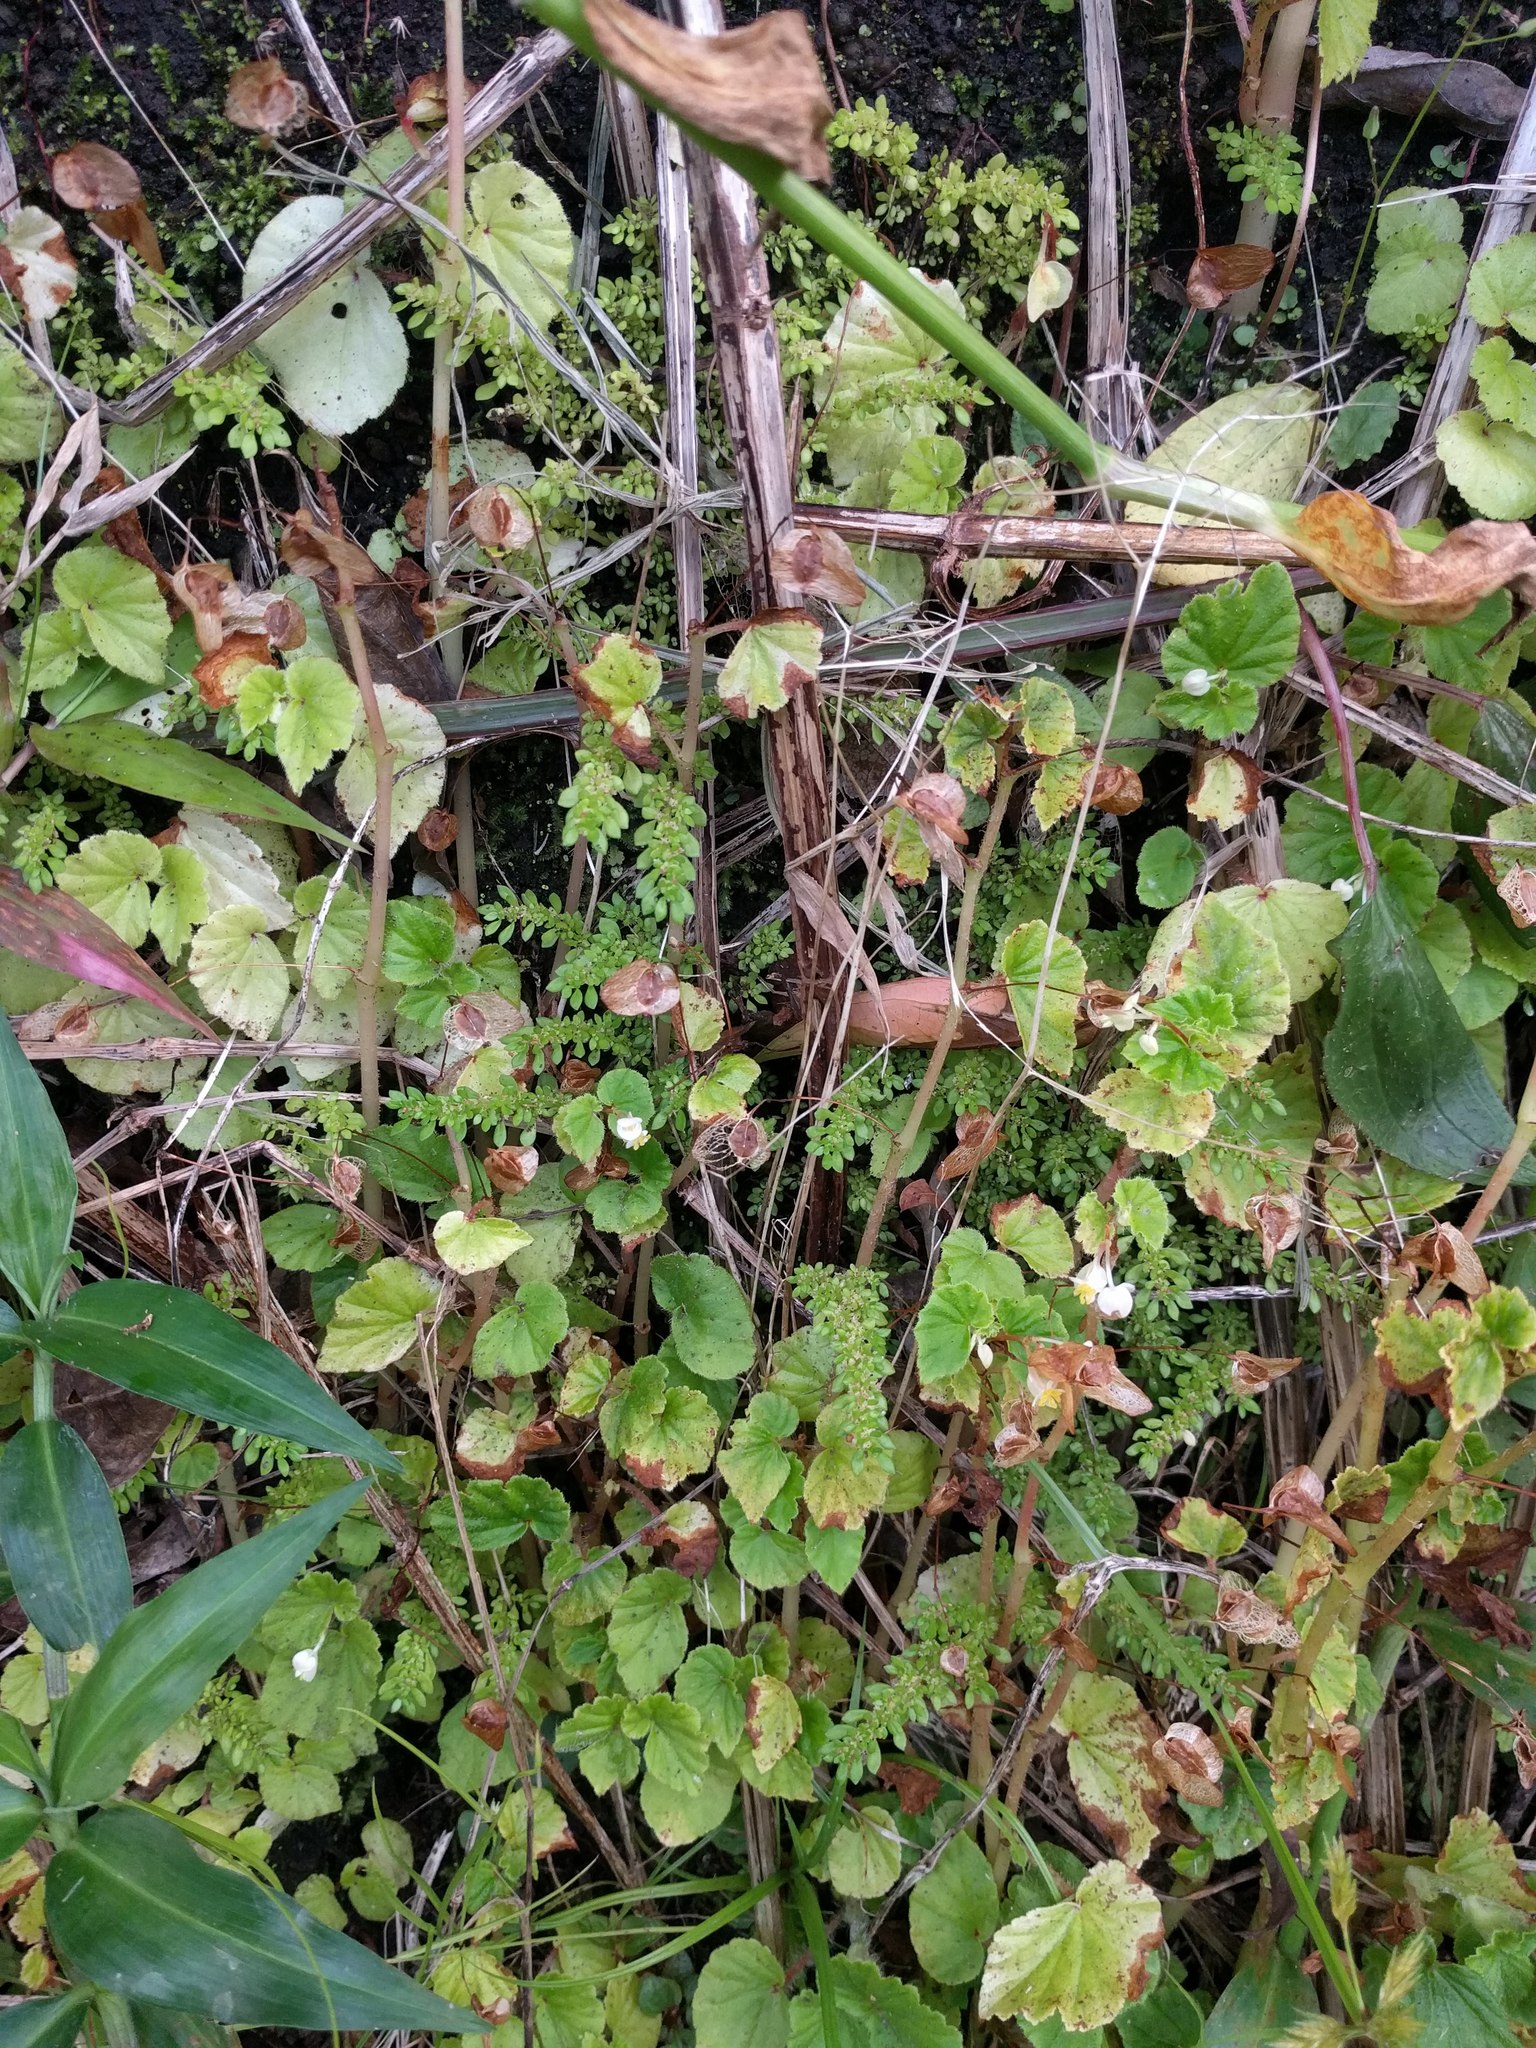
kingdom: Plantae
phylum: Tracheophyta
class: Magnoliopsida
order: Cucurbitales
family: Begoniaceae
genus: Begonia
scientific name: Begonia hirtella
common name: Brazilian begonia
